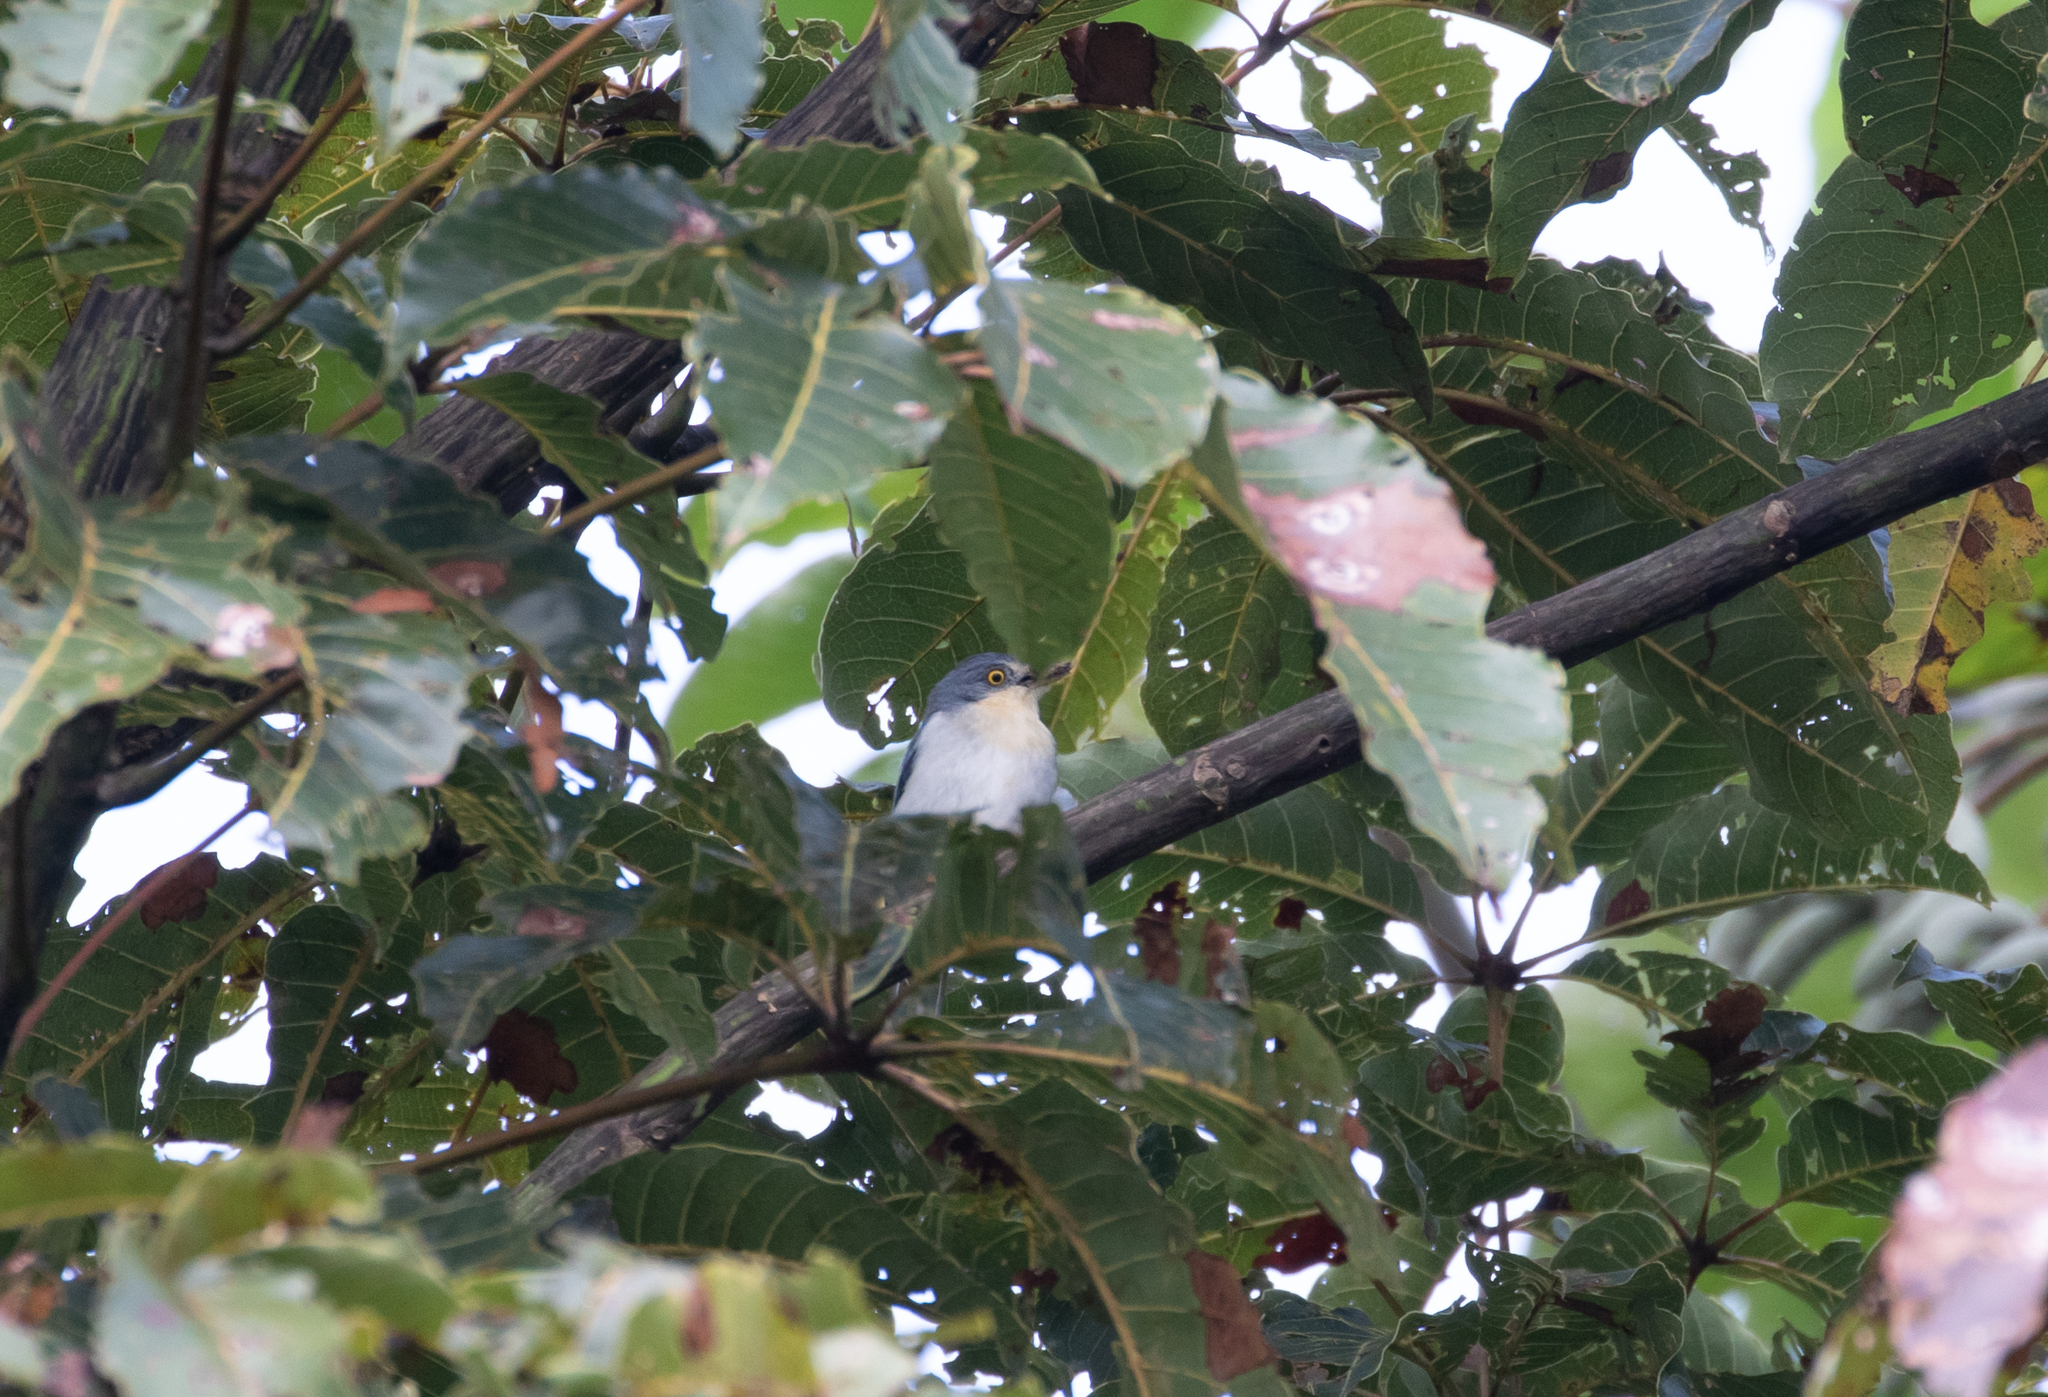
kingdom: Animalia
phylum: Chordata
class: Aves
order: Passeriformes
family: Thraupidae
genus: Nemosia
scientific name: Nemosia pileata
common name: Hooded tanager
